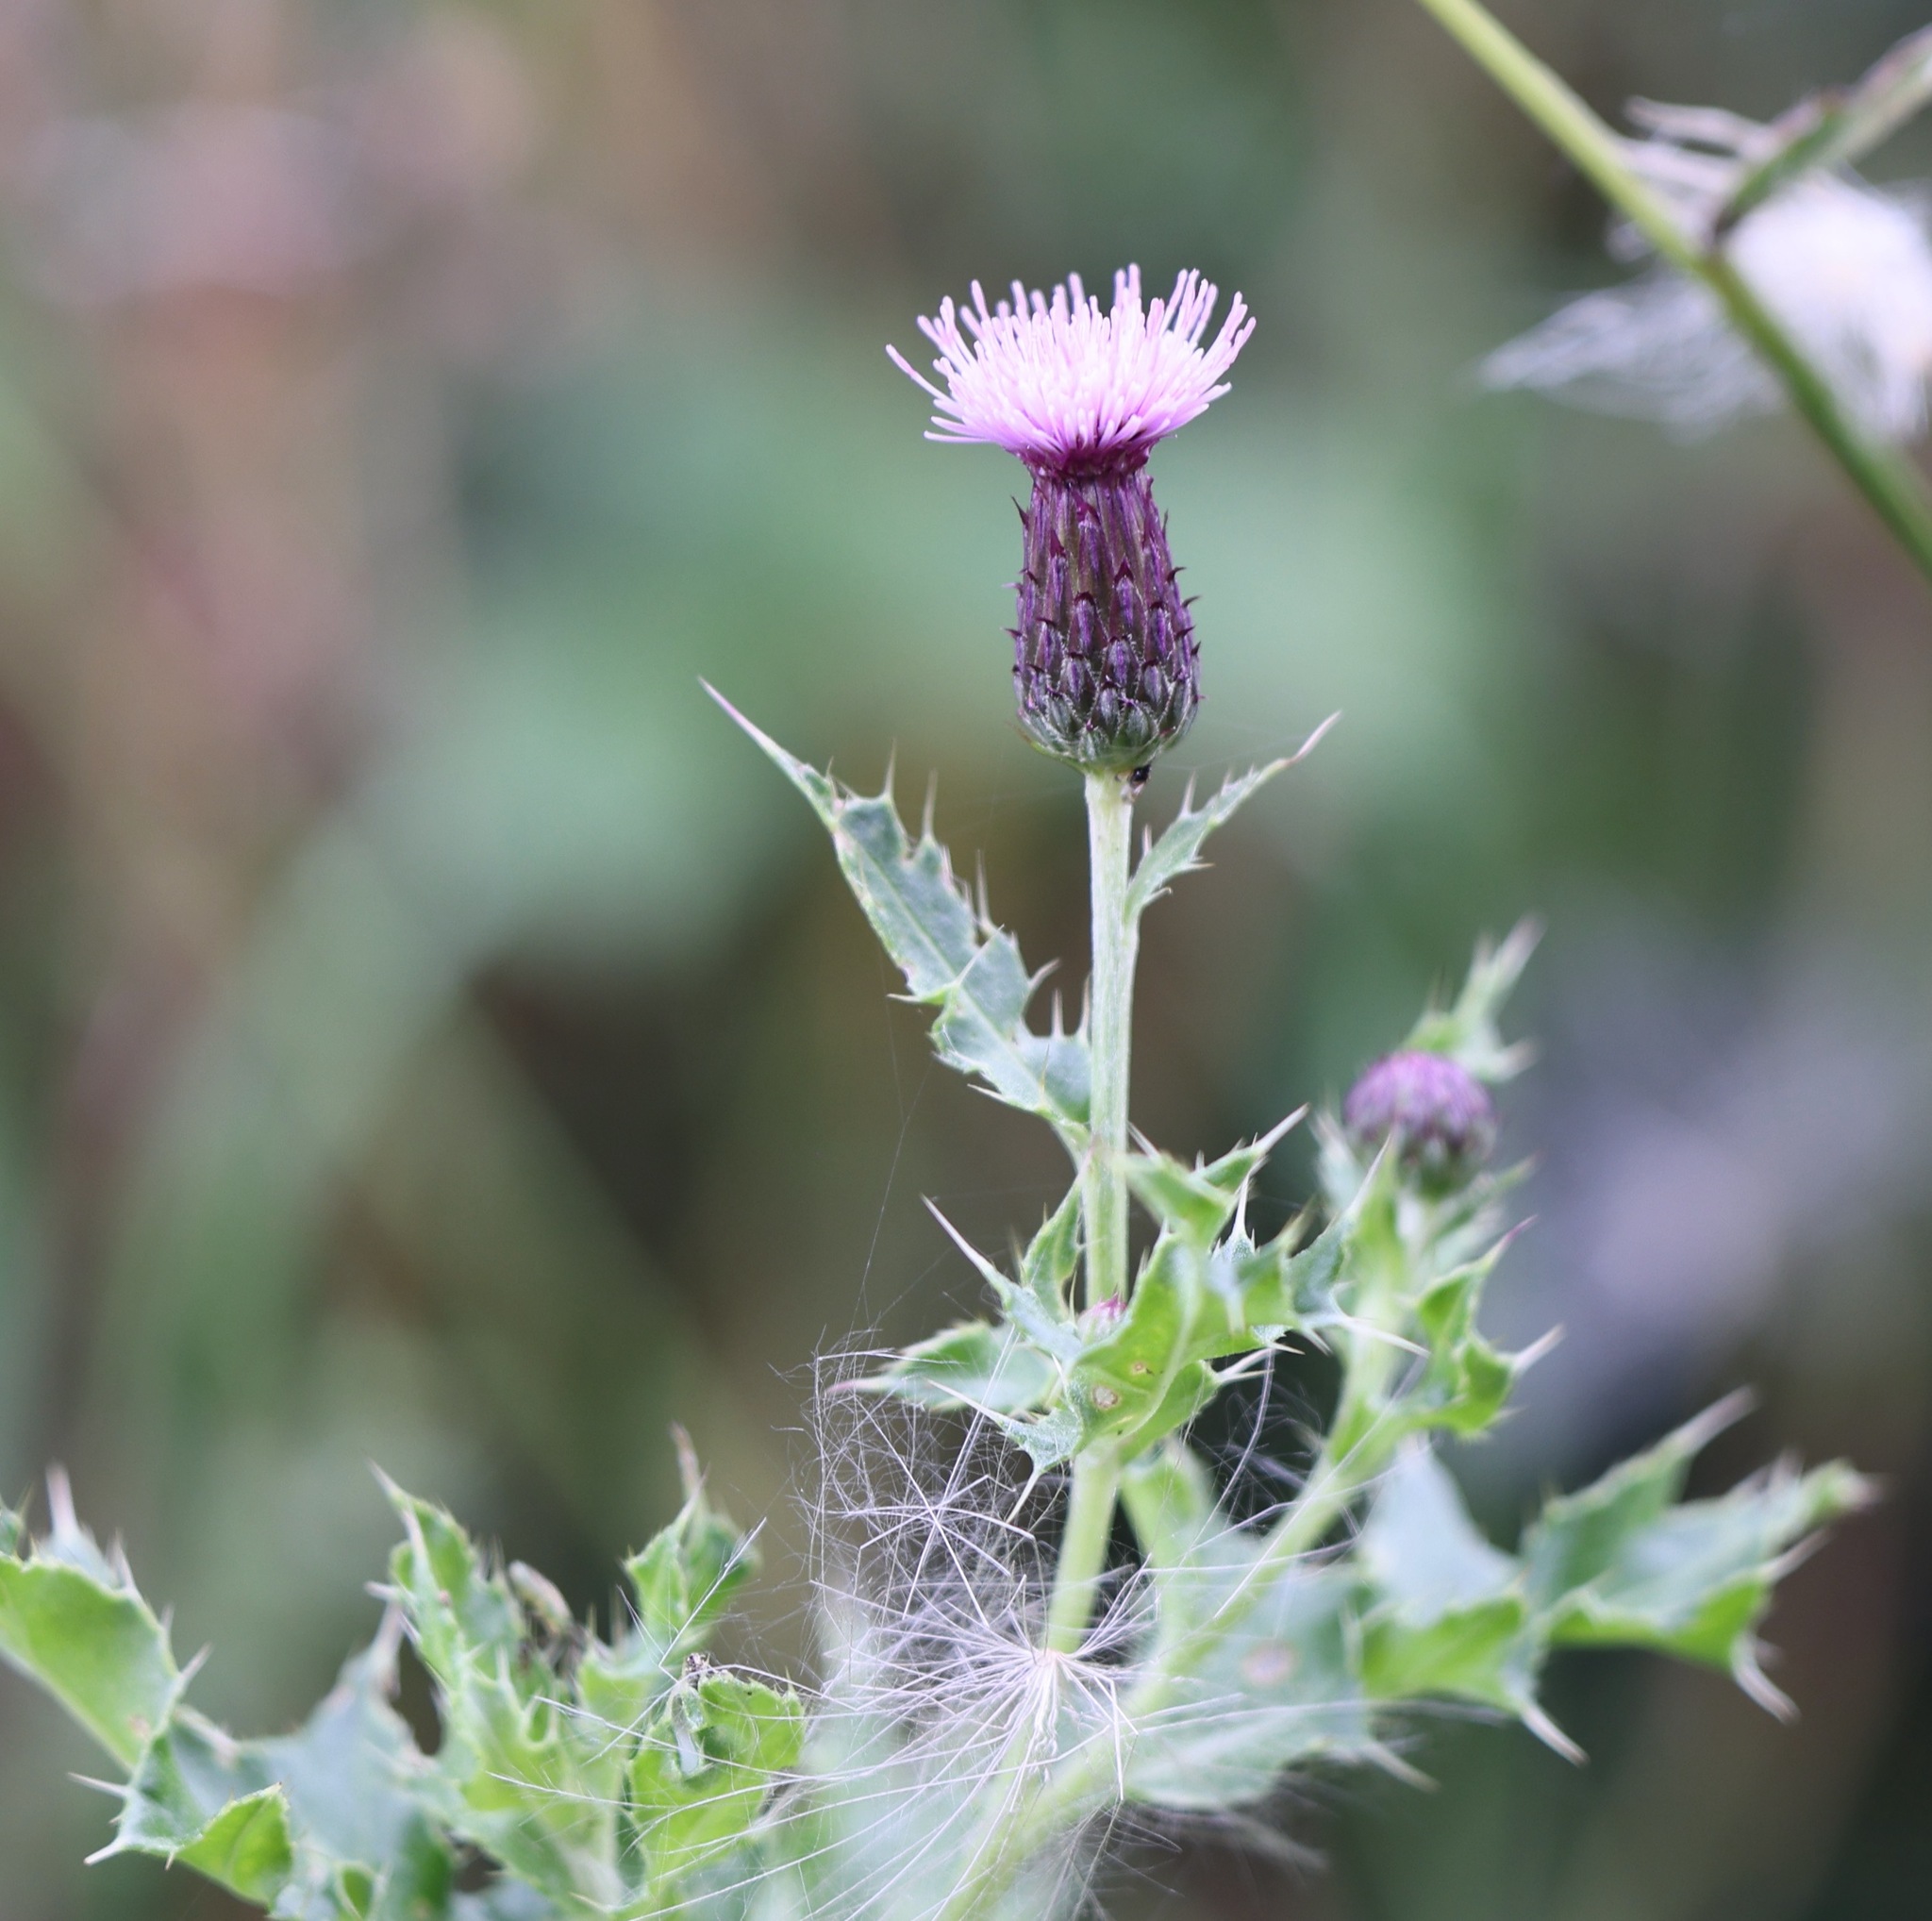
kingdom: Plantae
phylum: Tracheophyta
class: Magnoliopsida
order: Asterales
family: Asteraceae
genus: Cirsium
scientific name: Cirsium arvense
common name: Creeping thistle
